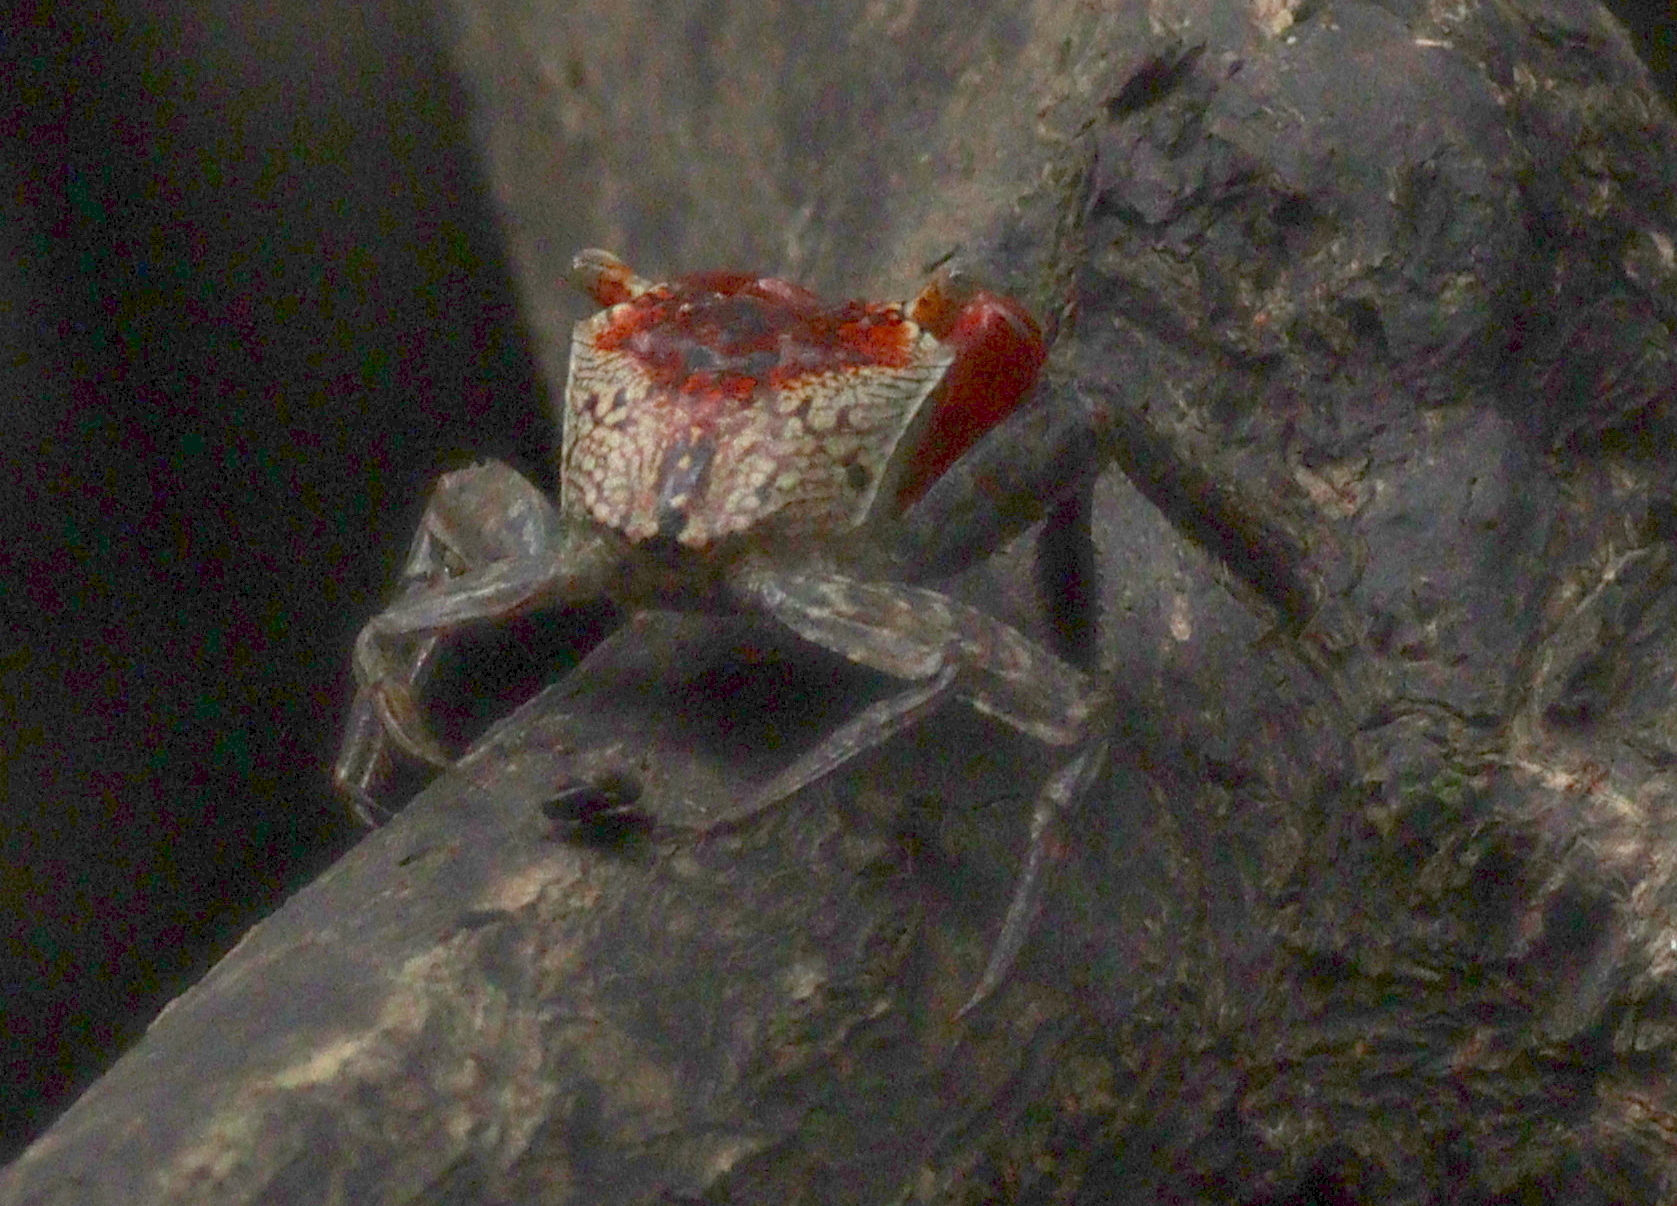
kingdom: Animalia
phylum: Arthropoda
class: Malacostraca
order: Decapoda
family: Sesarmidae
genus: Aratus
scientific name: Aratus pacificus
